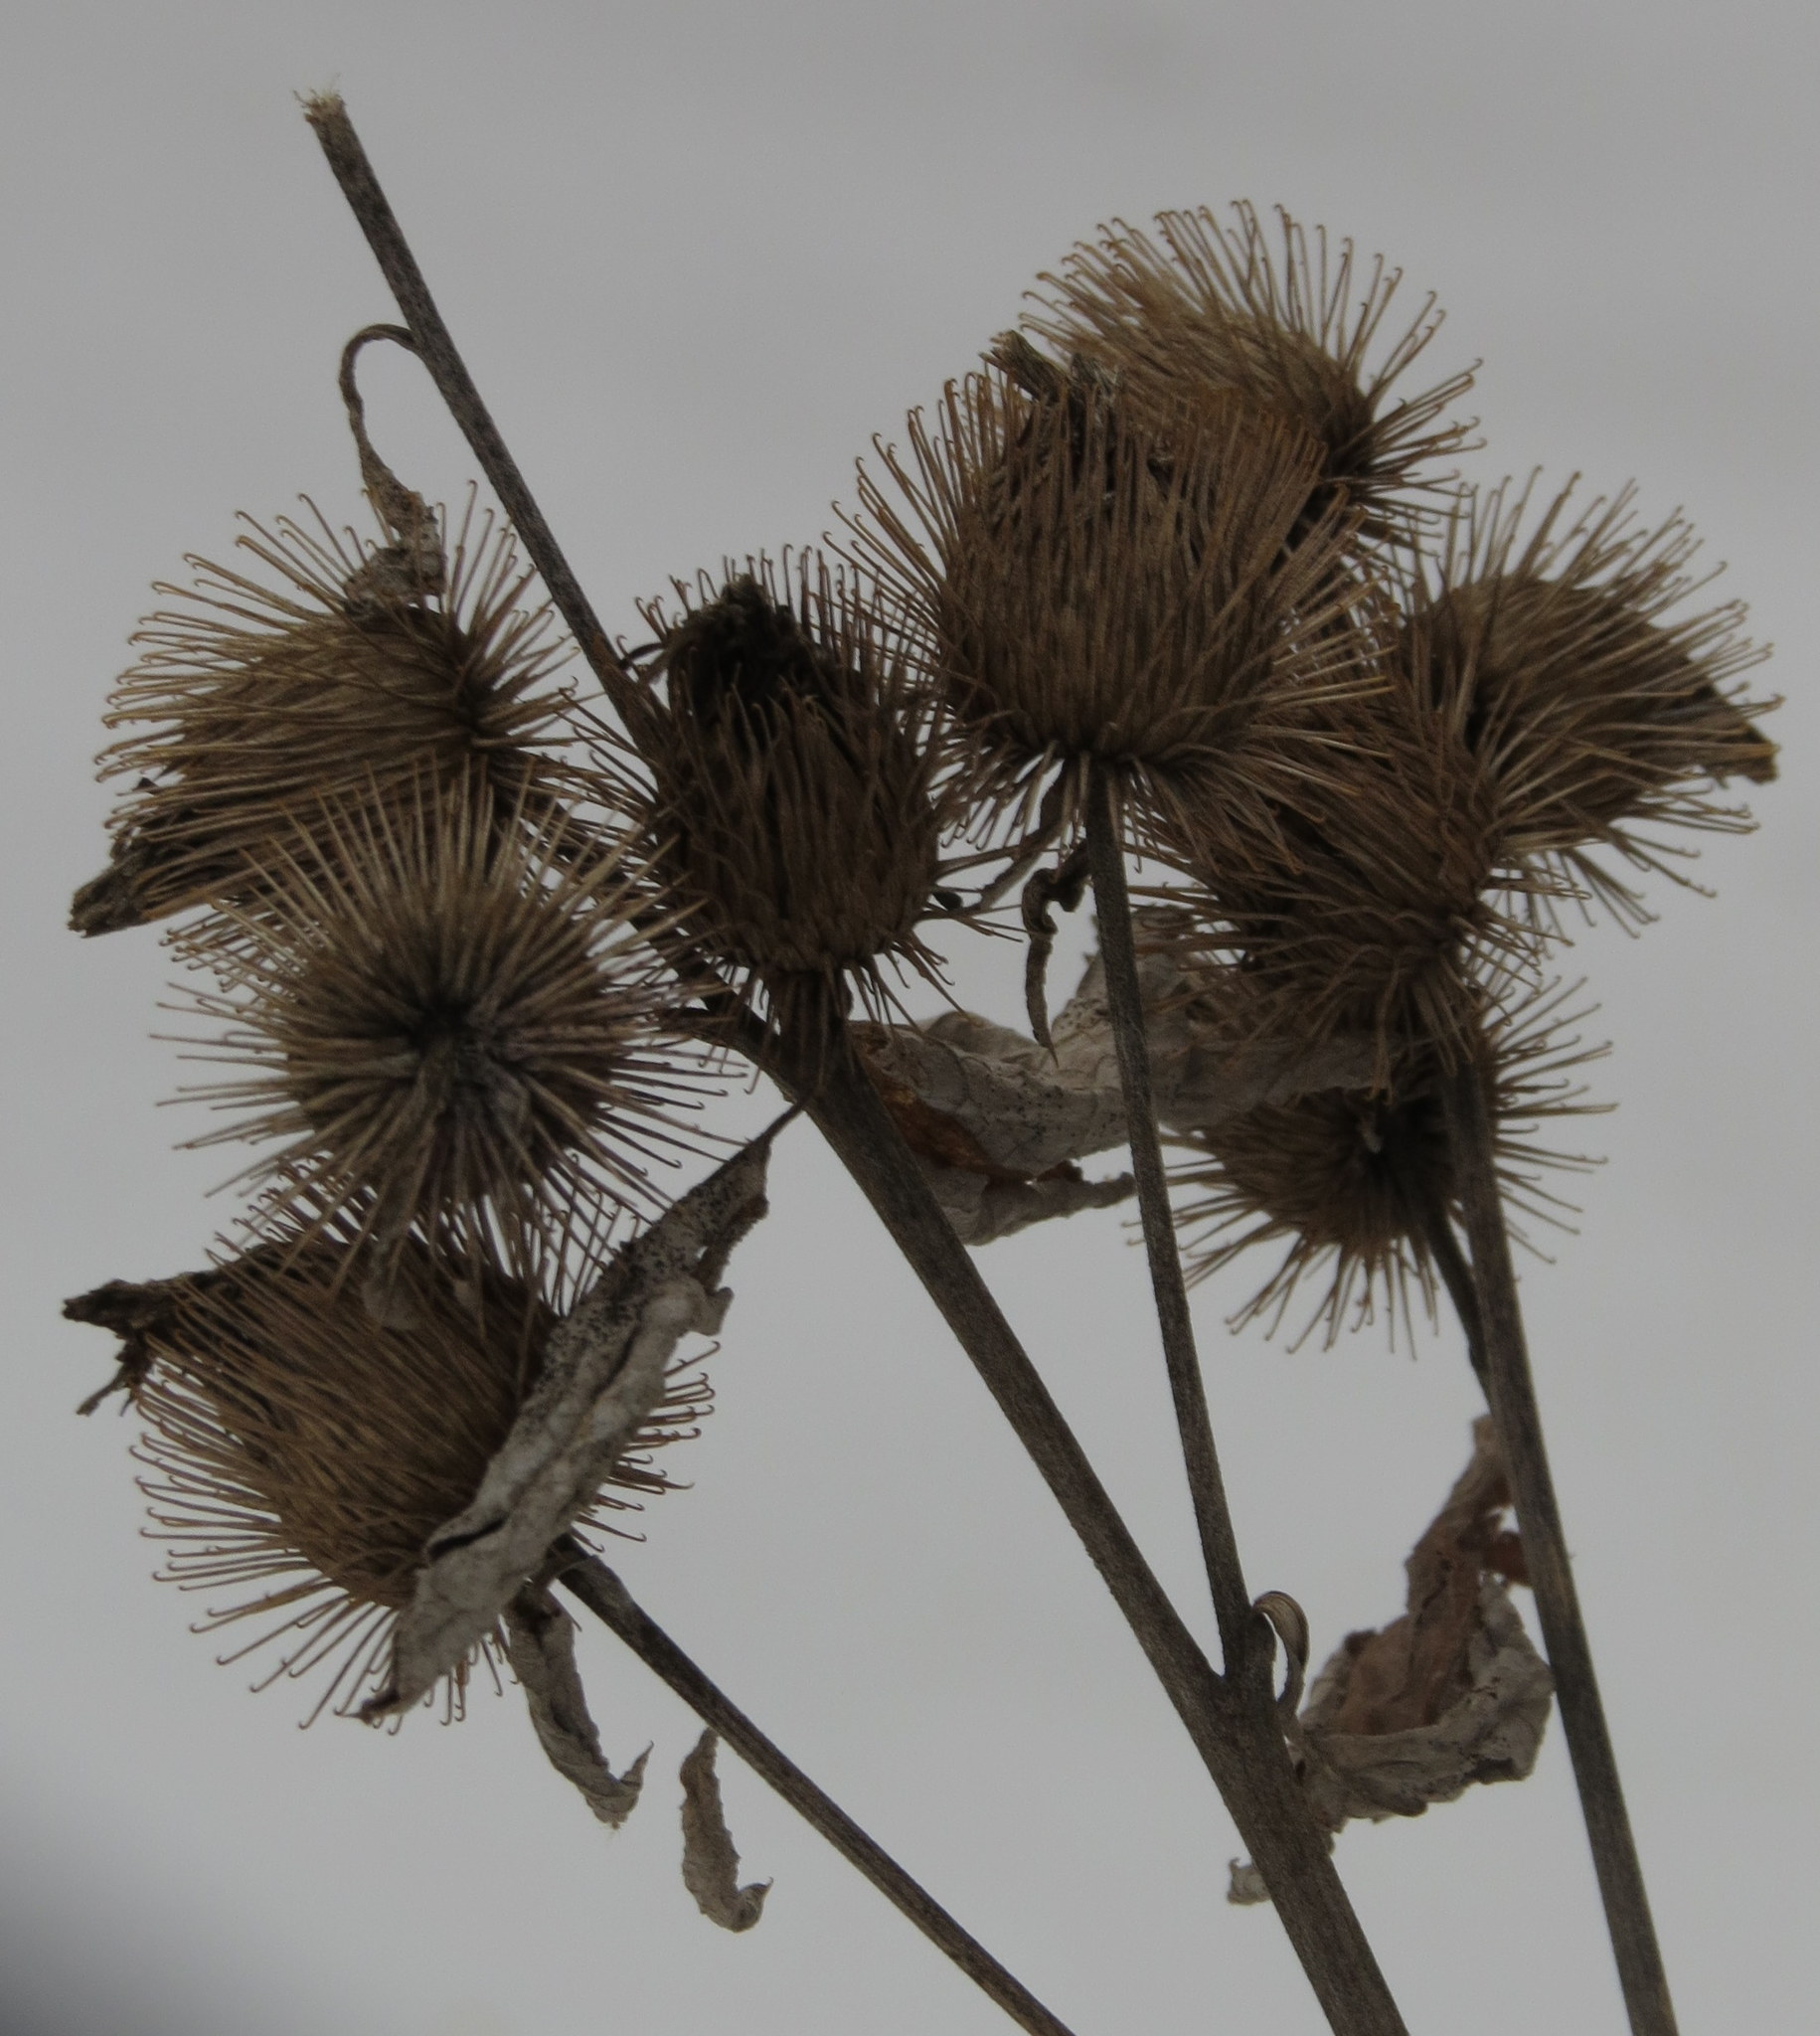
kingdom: Plantae
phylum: Tracheophyta
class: Magnoliopsida
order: Asterales
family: Asteraceae
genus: Arctium
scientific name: Arctium minus
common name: Lesser burdock
